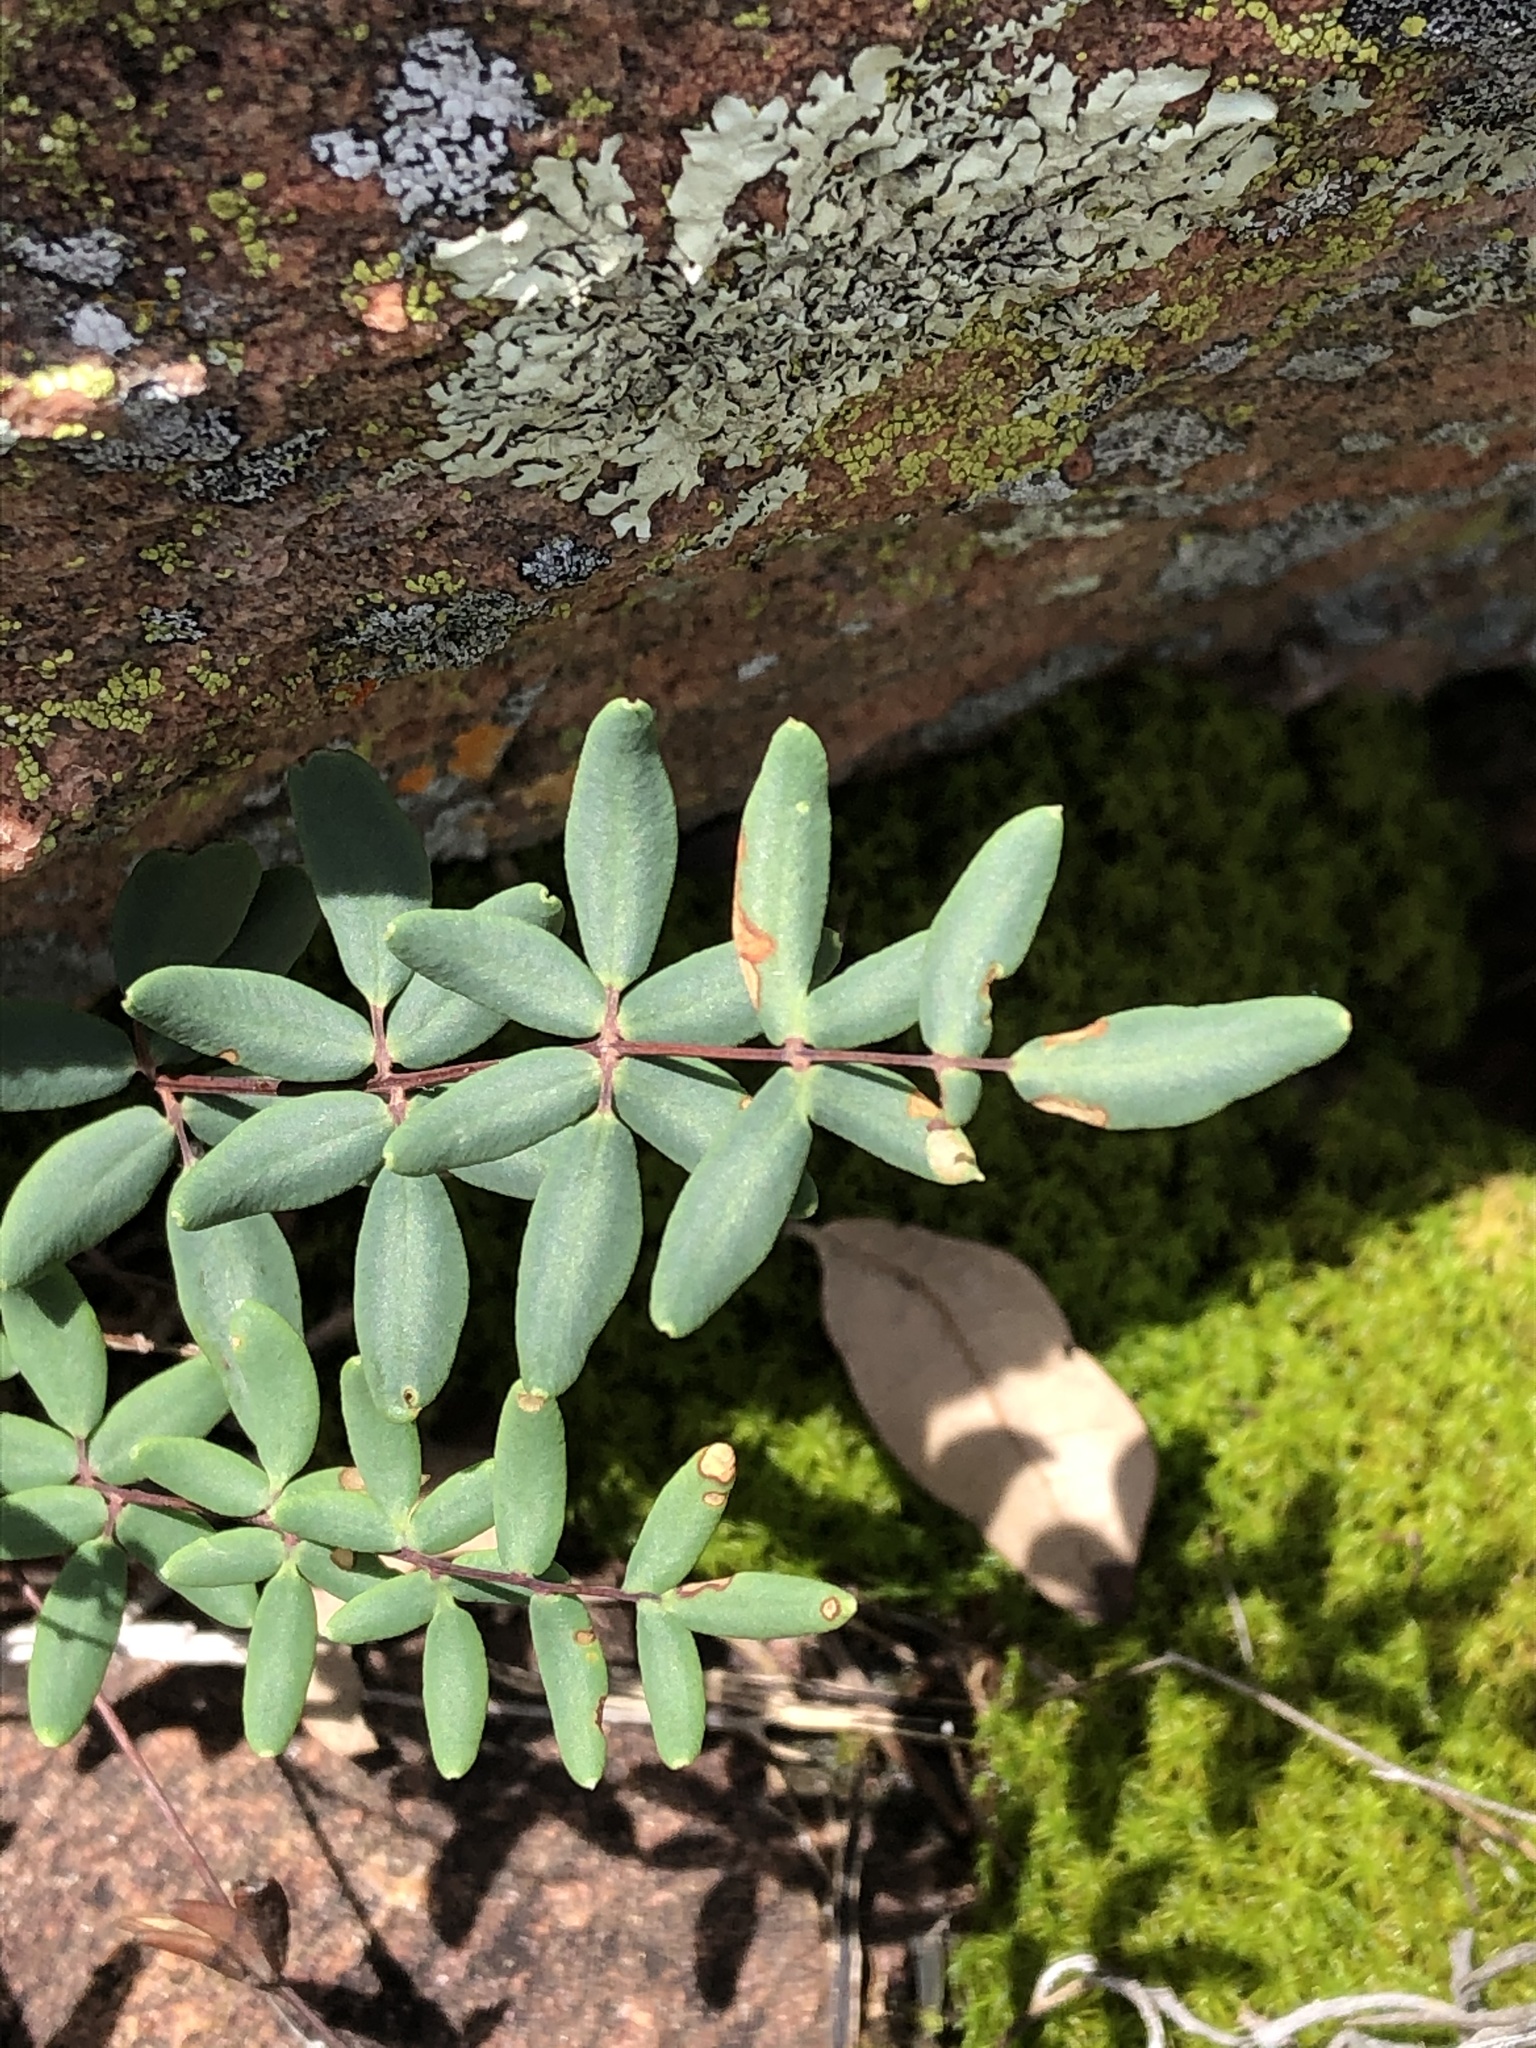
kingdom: Plantae
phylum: Tracheophyta
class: Polypodiopsida
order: Polypodiales
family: Pteridaceae
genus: Pellaea
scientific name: Pellaea wrightiana
